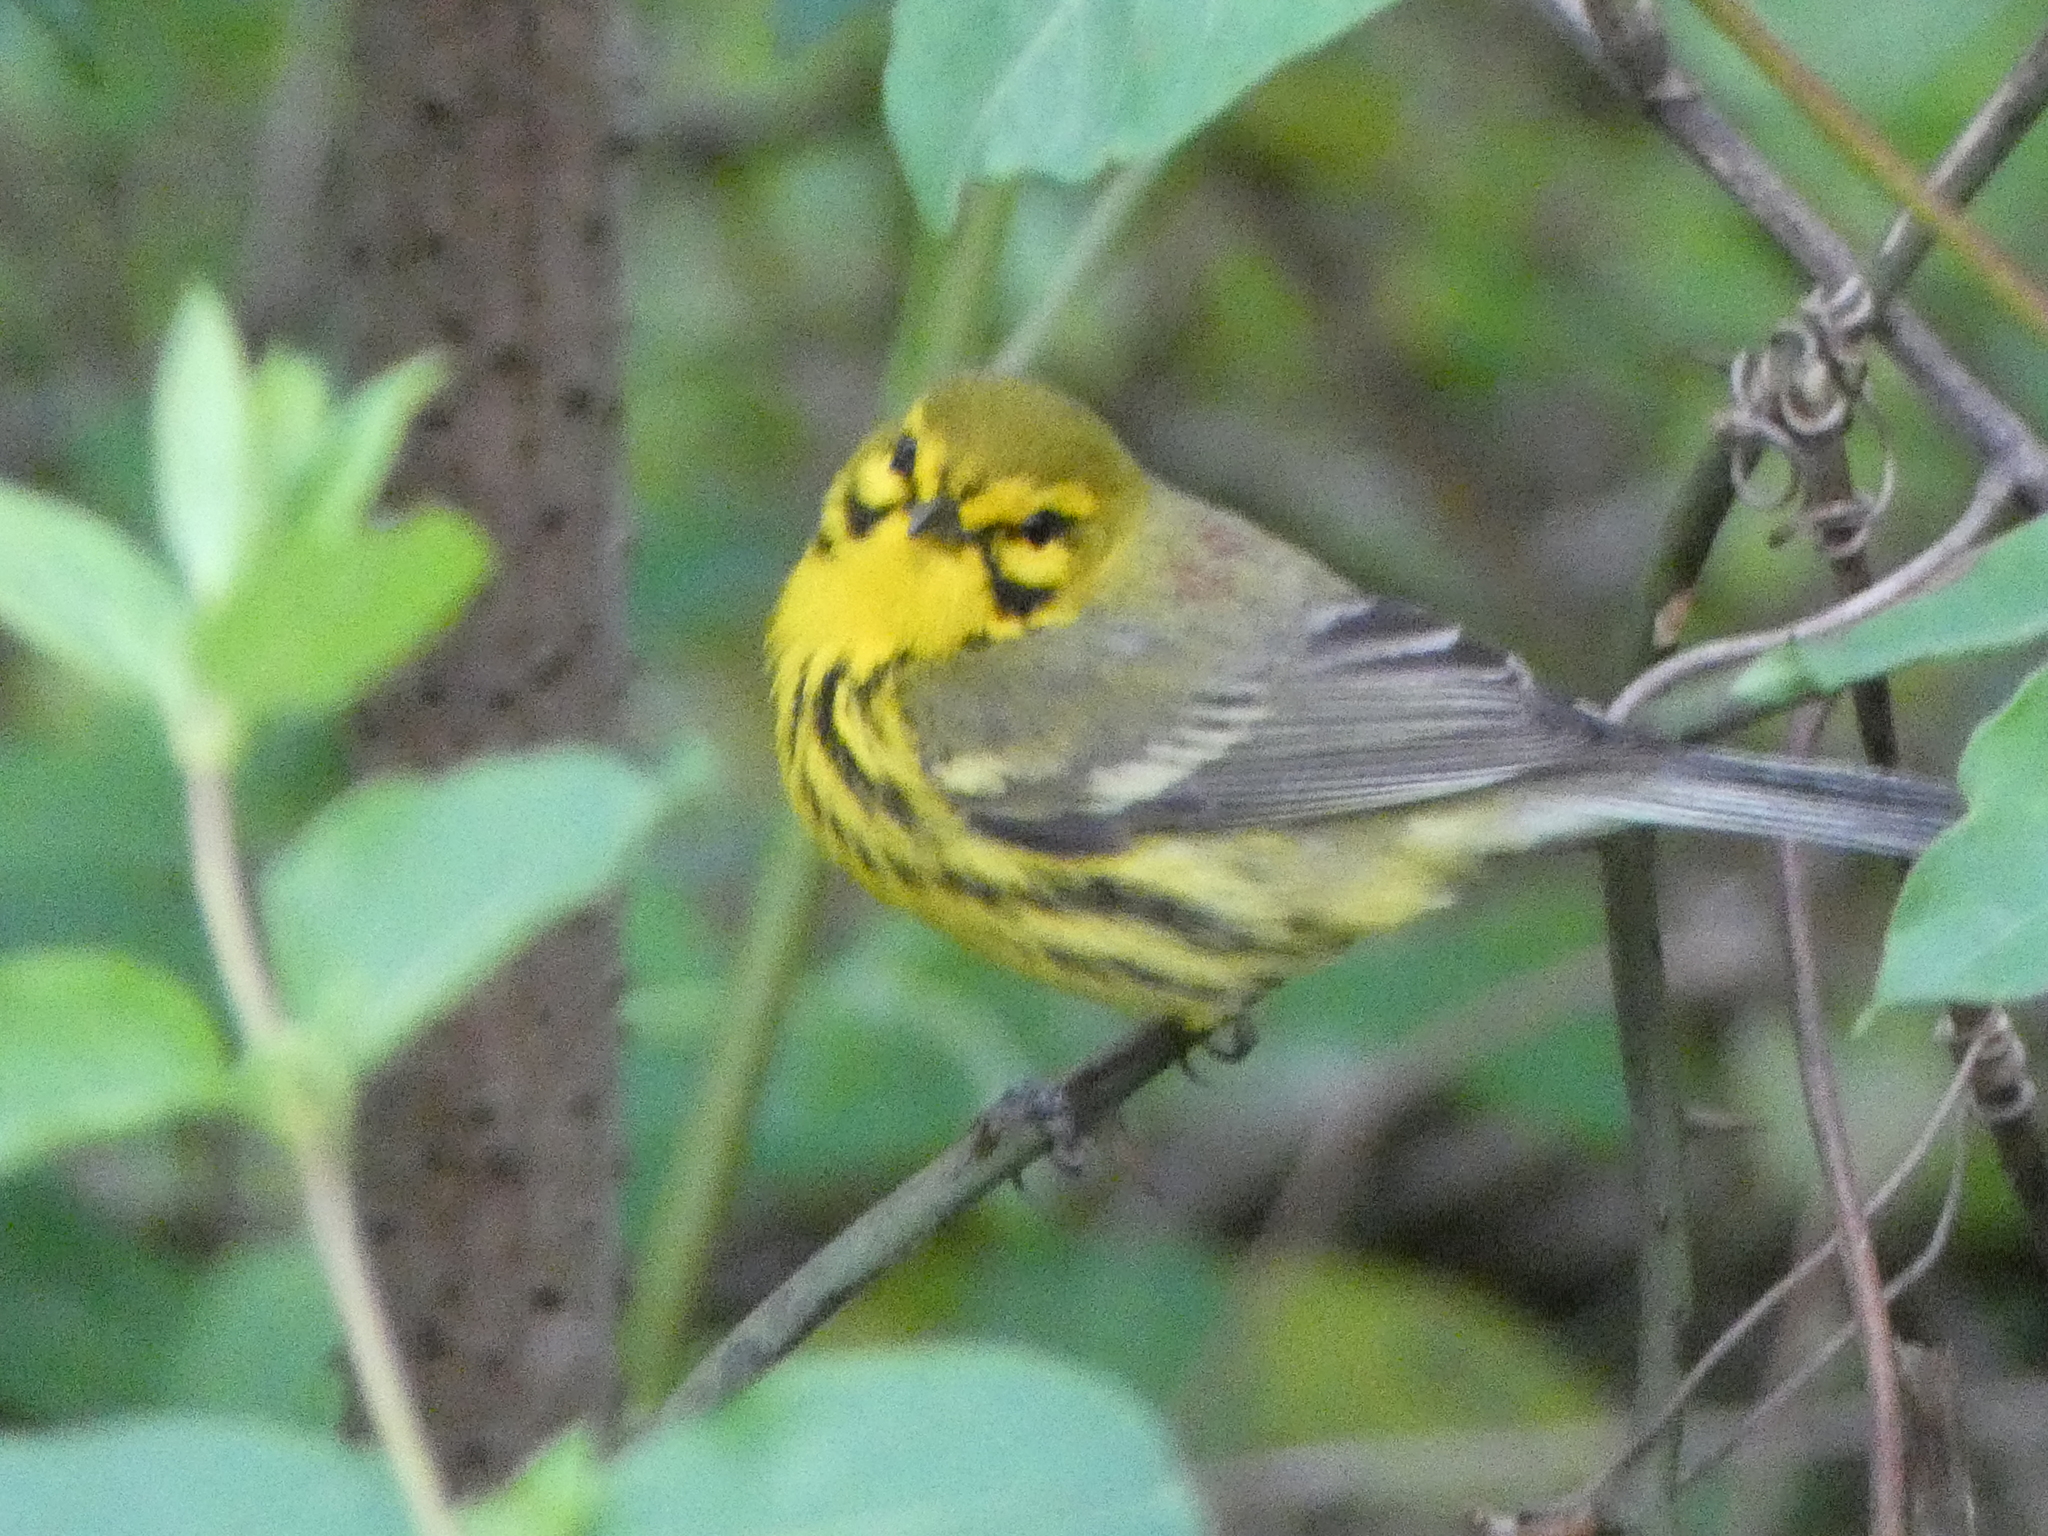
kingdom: Animalia
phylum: Chordata
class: Aves
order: Passeriformes
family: Parulidae
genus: Setophaga
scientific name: Setophaga discolor
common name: Prairie warbler
